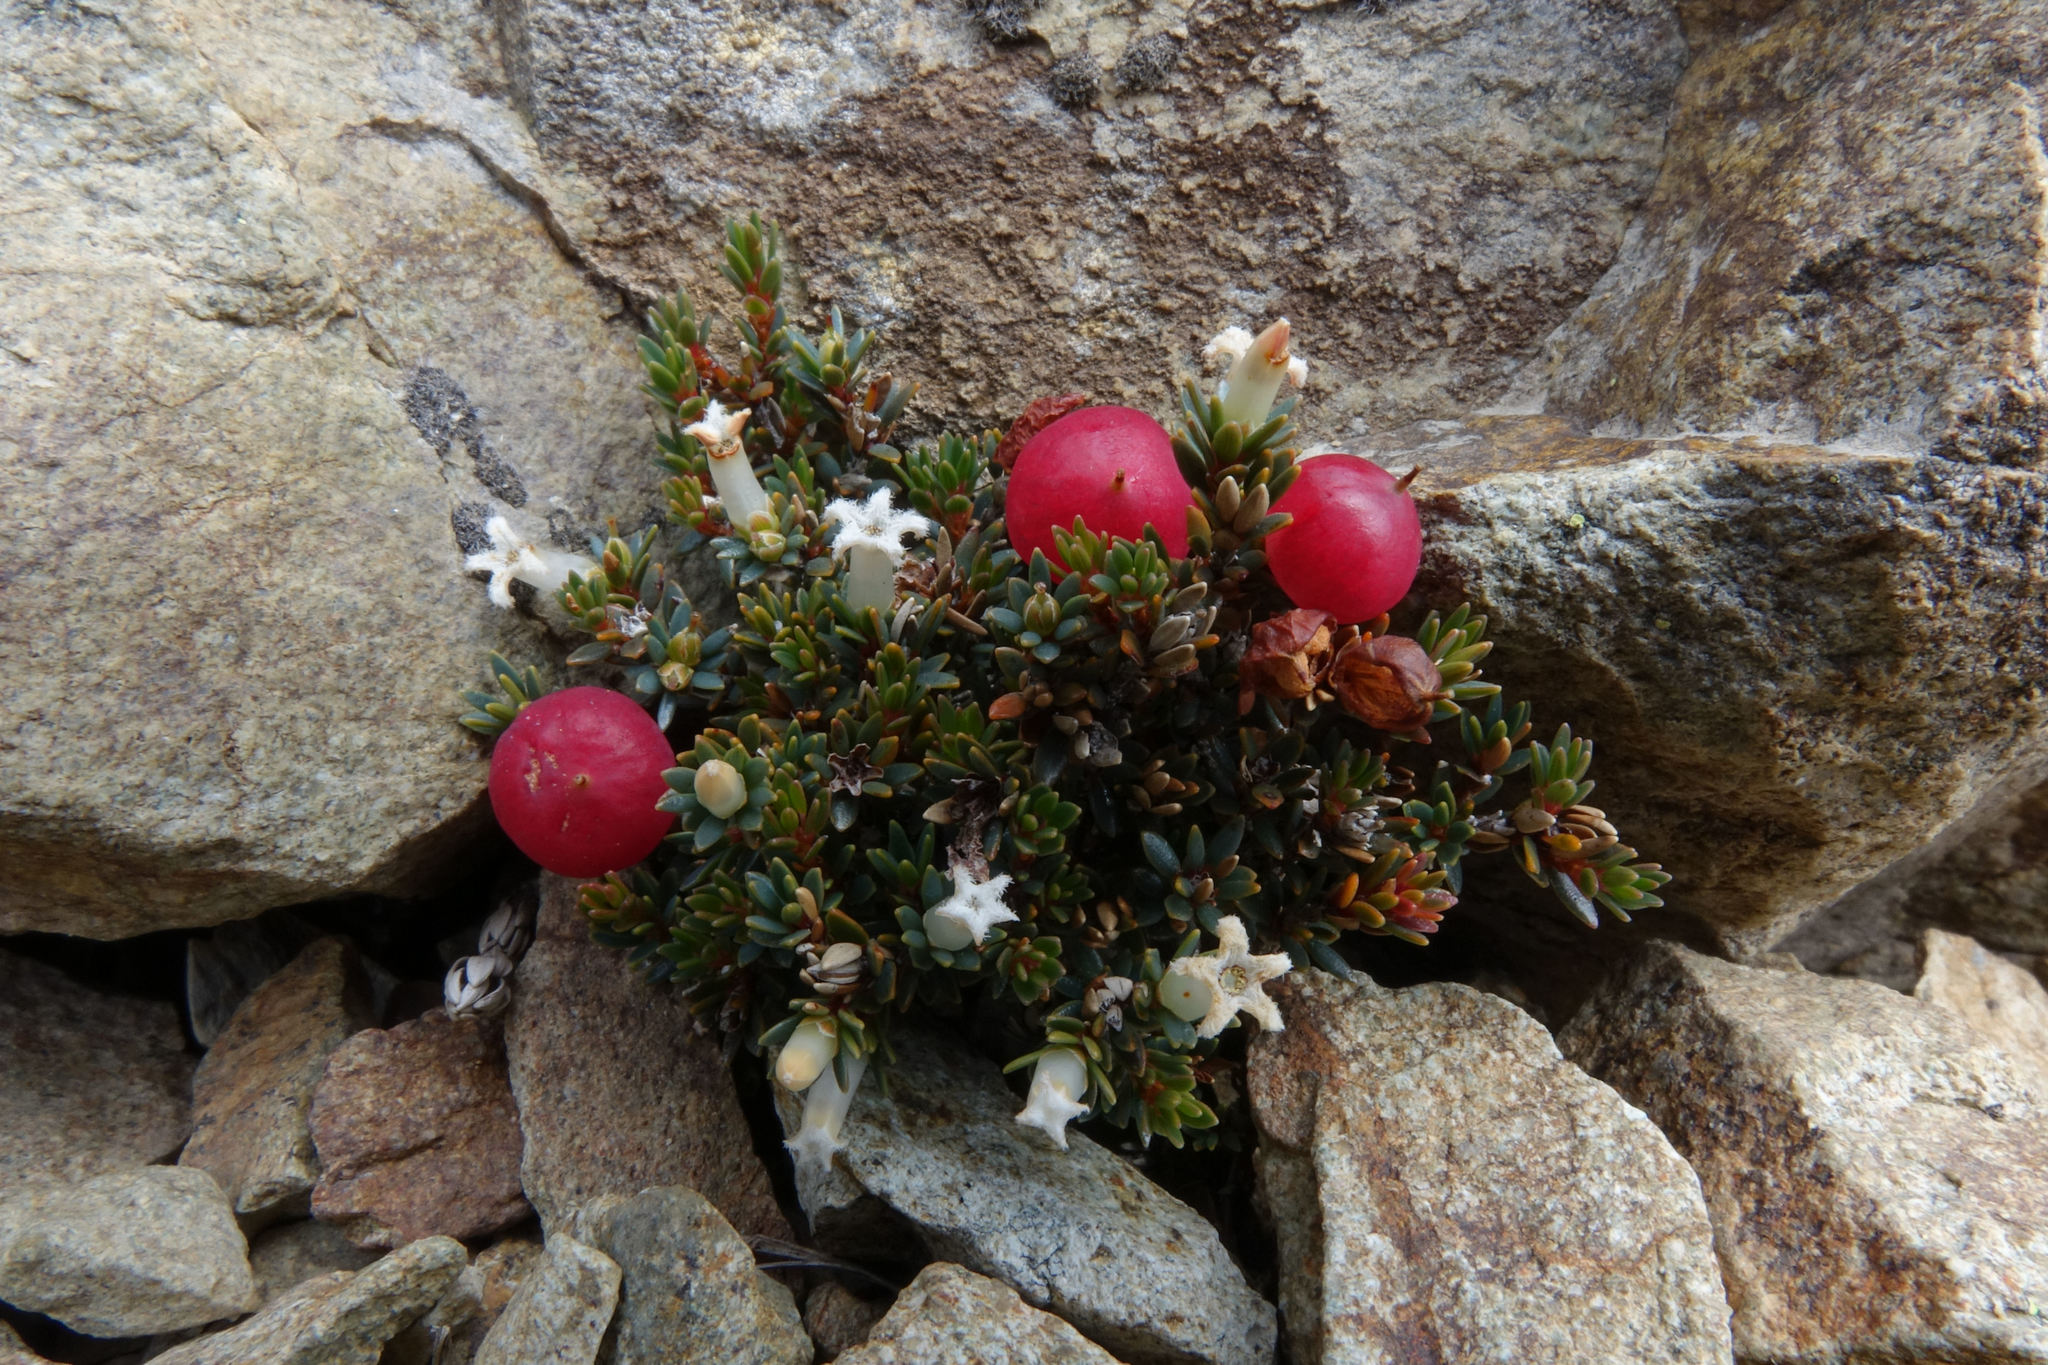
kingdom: Plantae
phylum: Tracheophyta
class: Magnoliopsida
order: Ericales
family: Ericaceae
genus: Pentachondra
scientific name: Pentachondra pumila
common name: Carpet-heath
